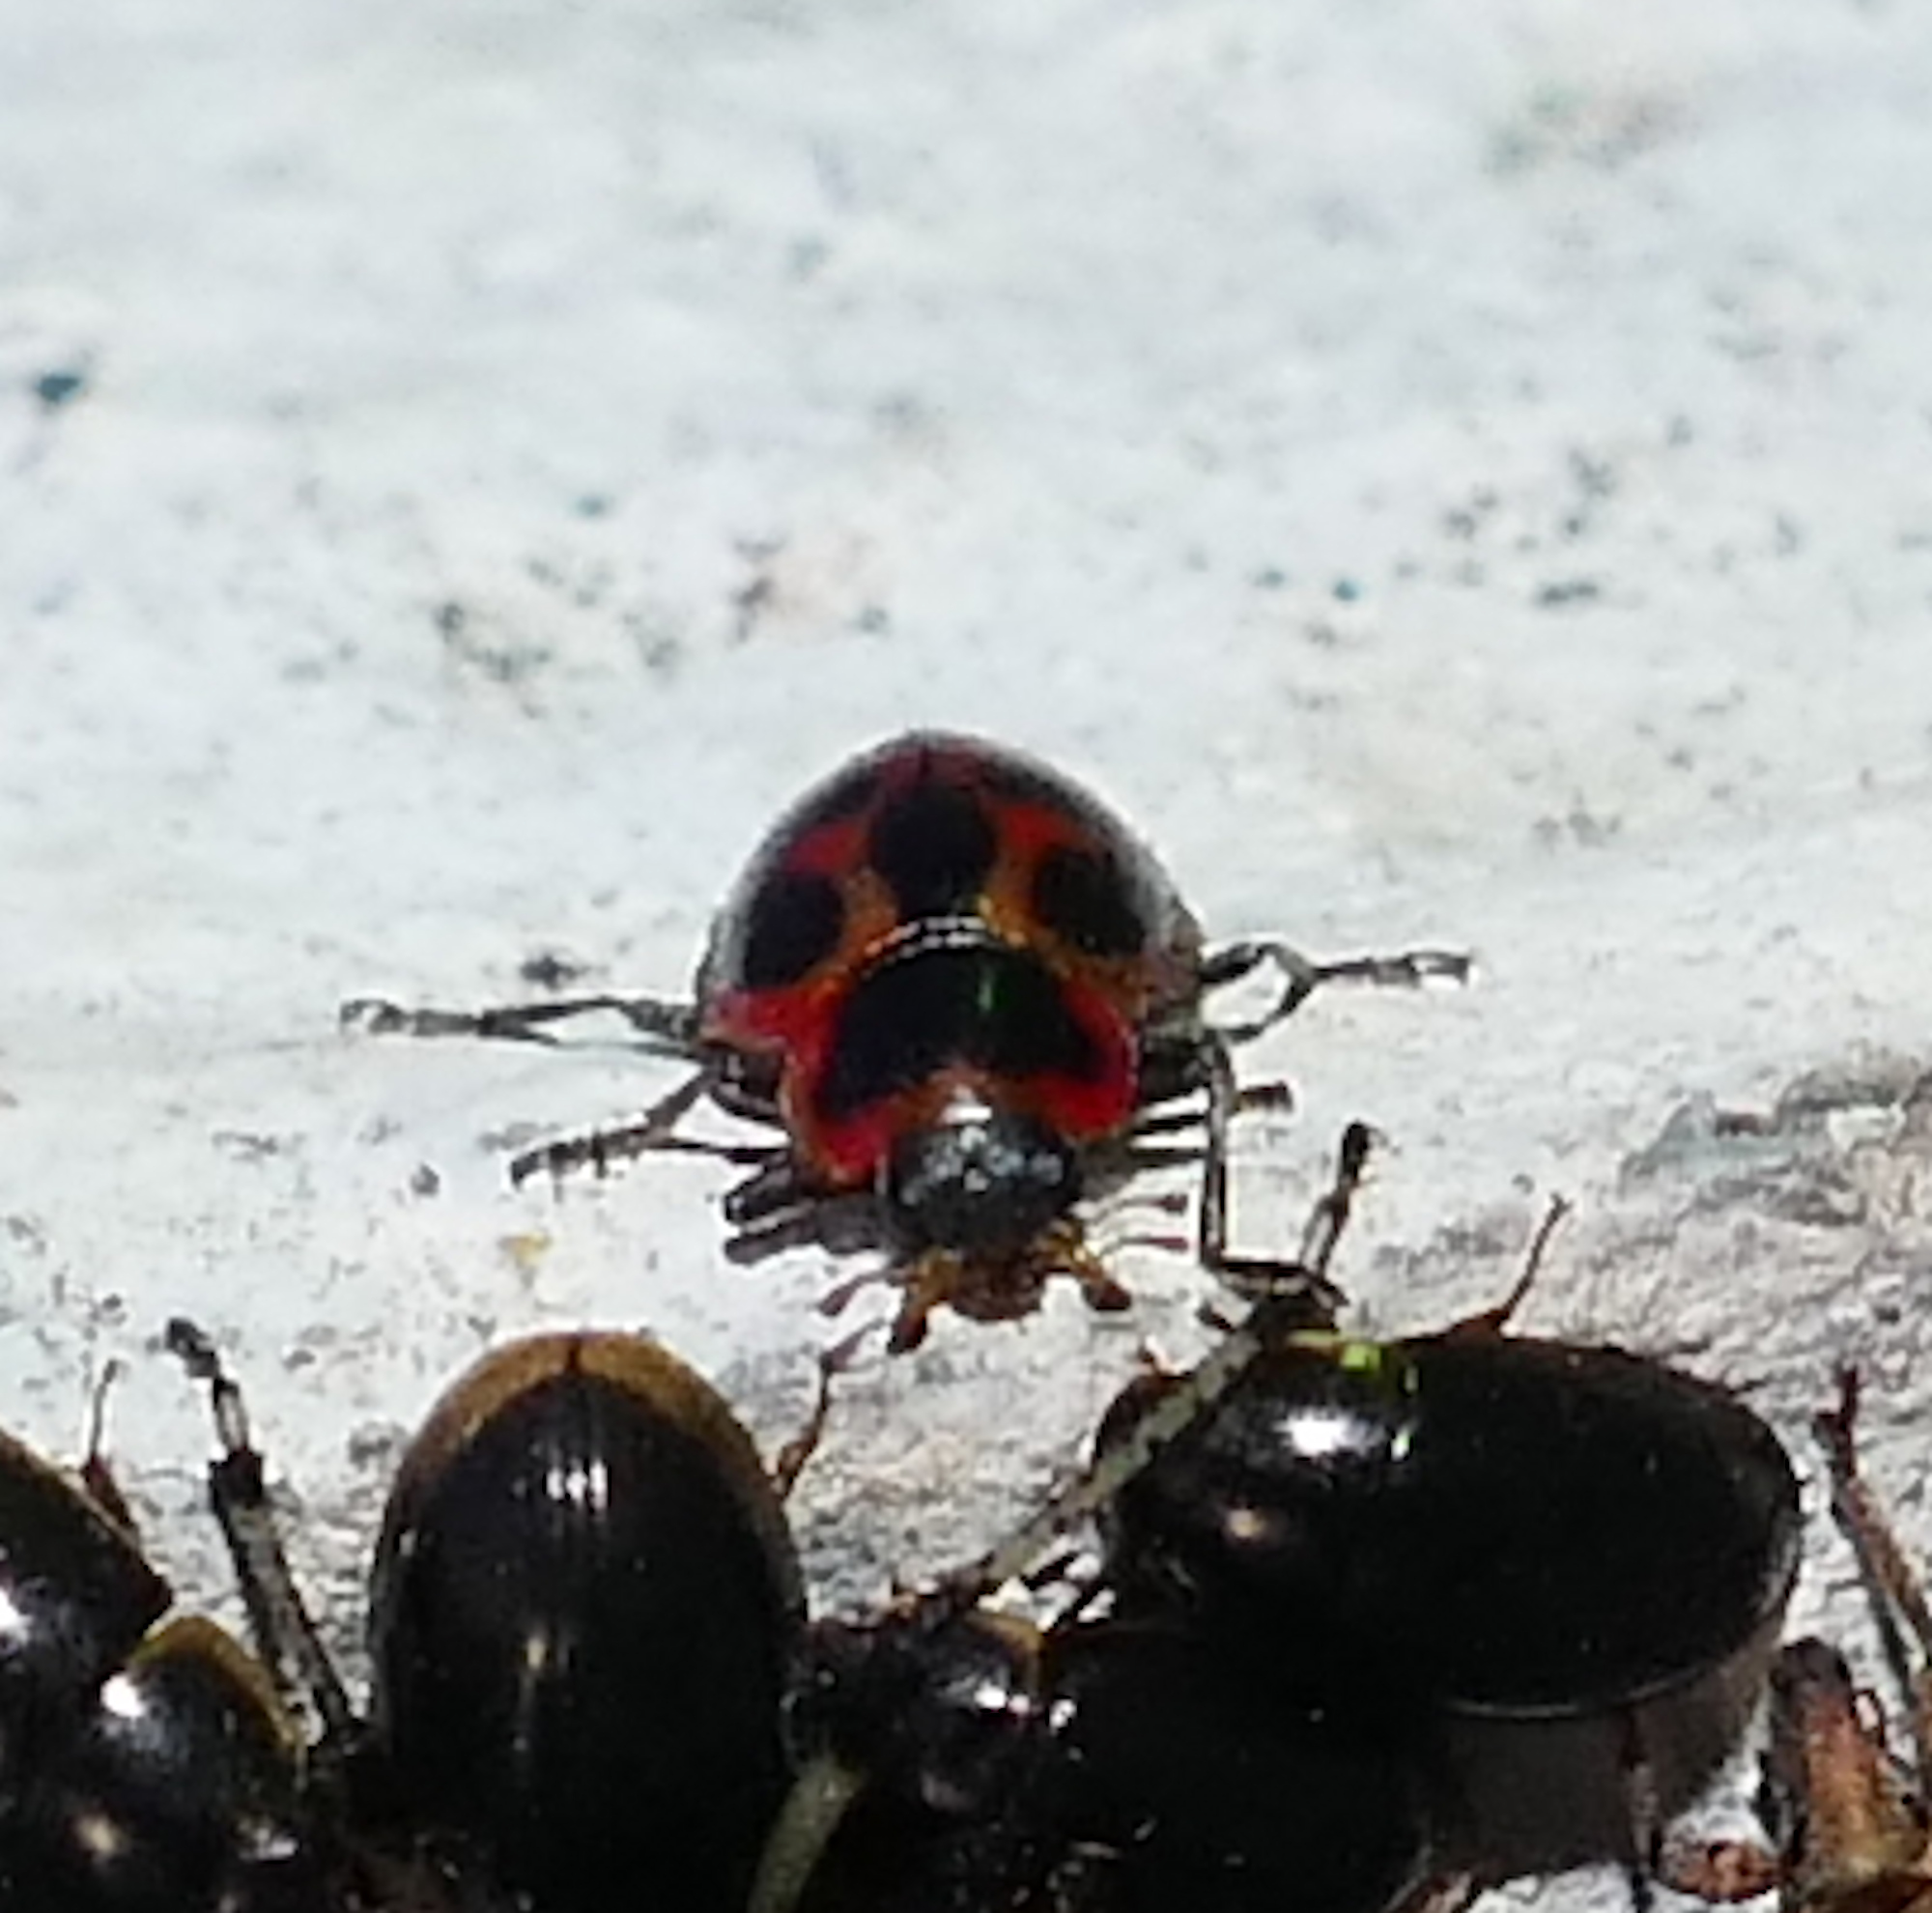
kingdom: Animalia
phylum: Arthropoda
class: Insecta
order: Coleoptera
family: Coccinellidae
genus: Naemia
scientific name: Naemia seriata
